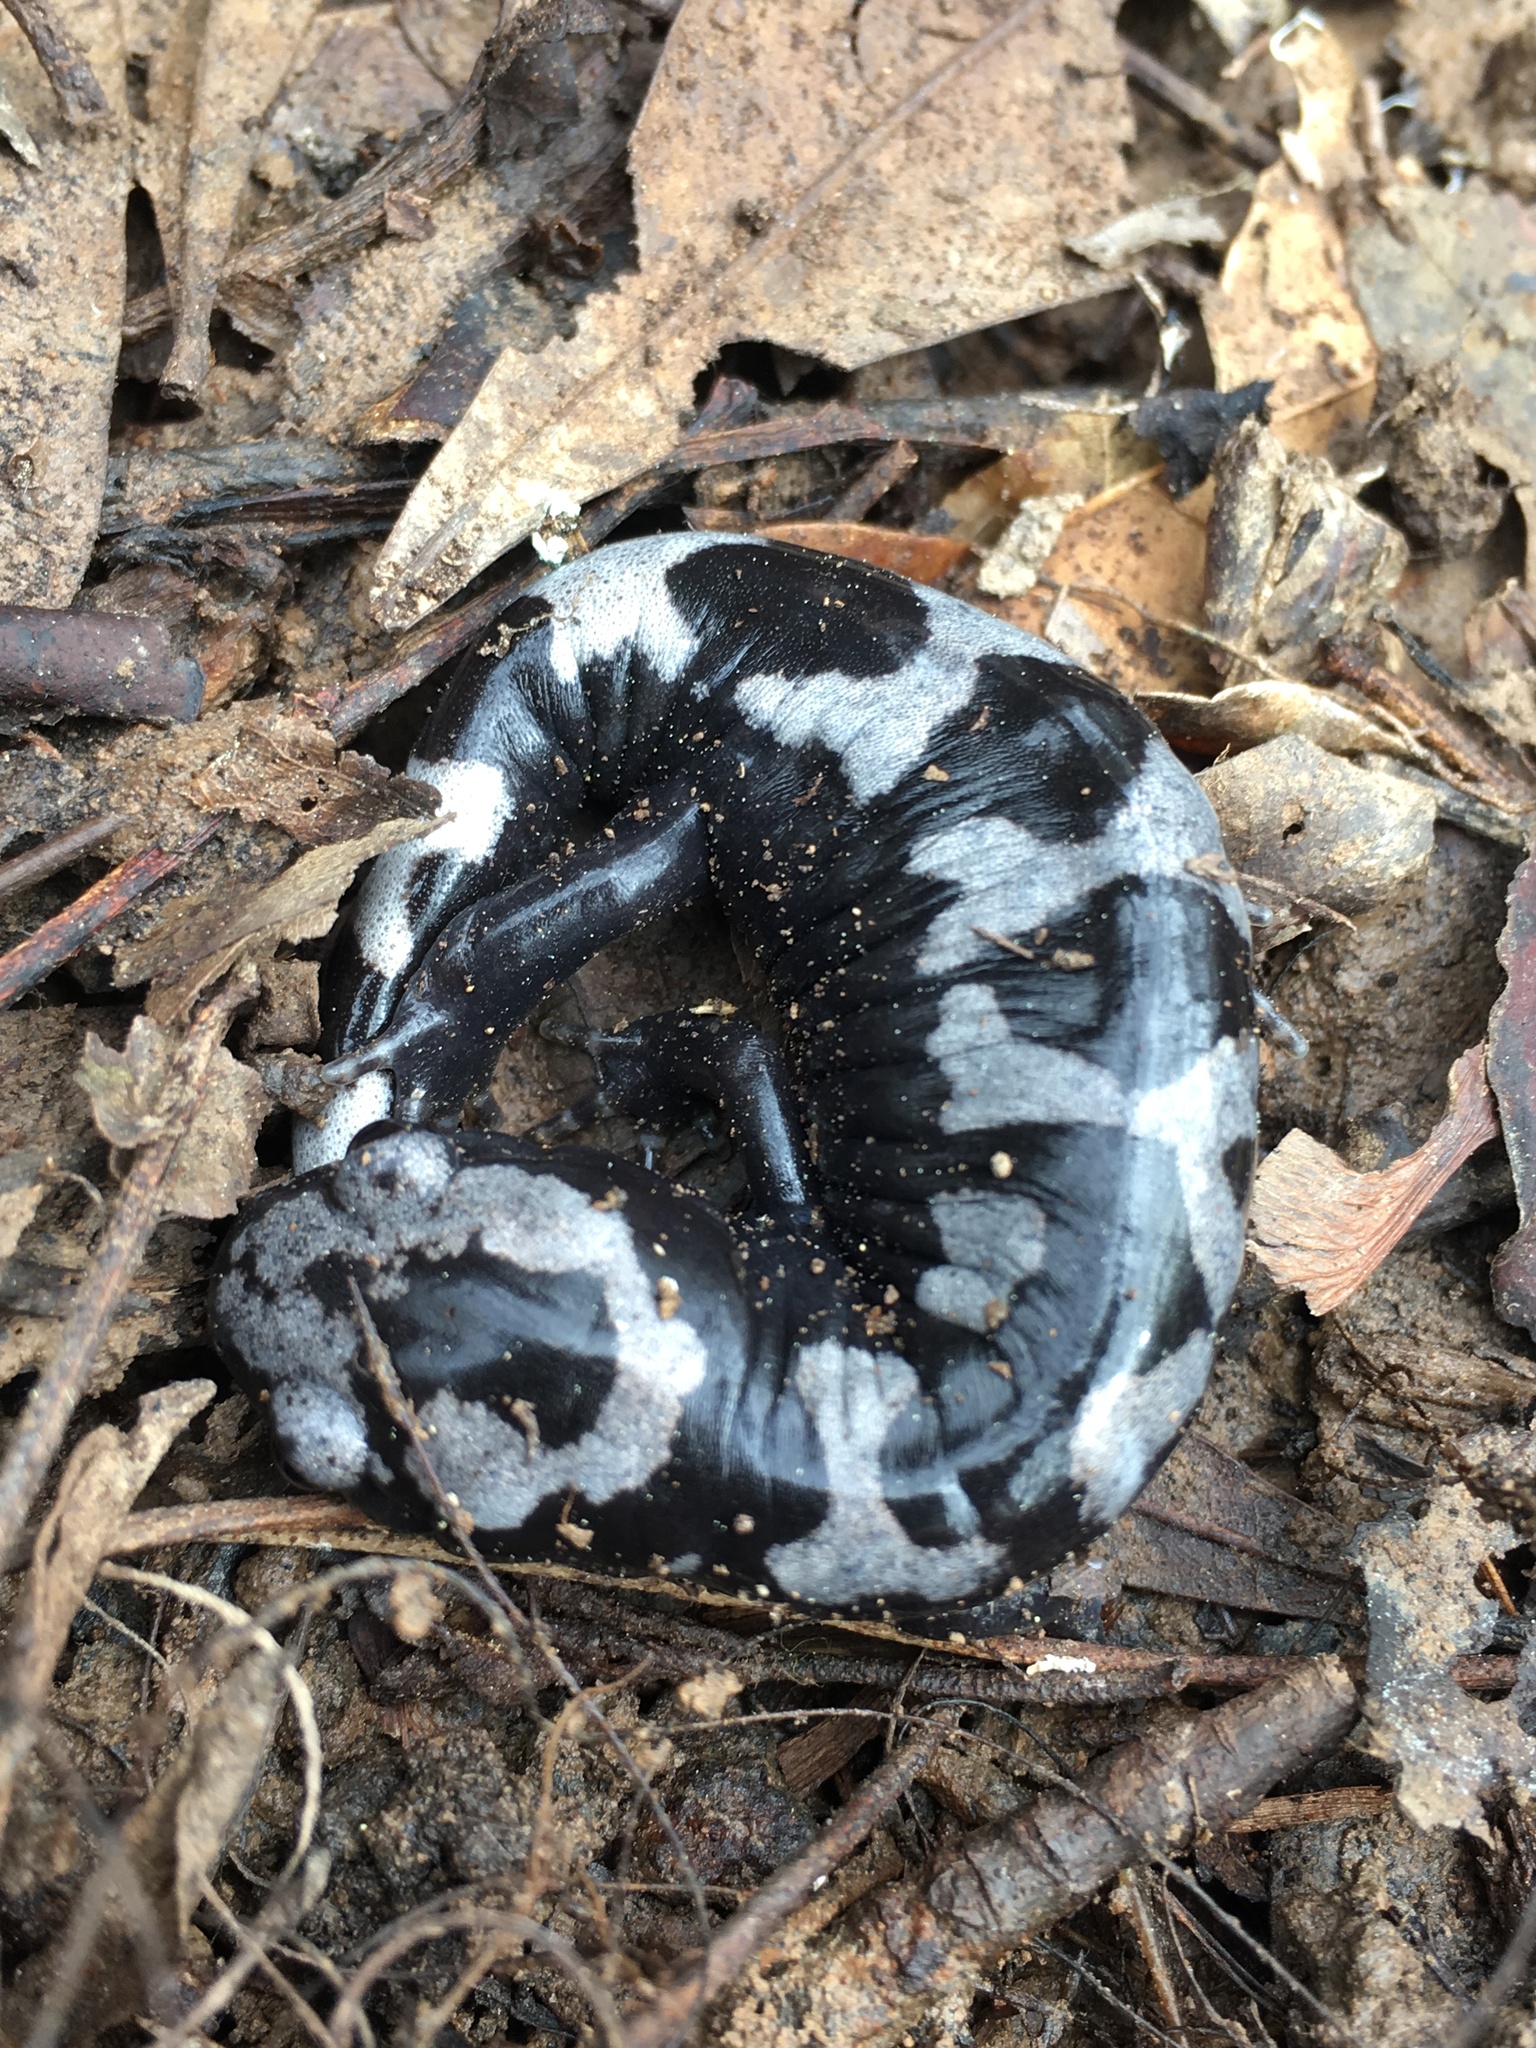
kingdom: Animalia
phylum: Chordata
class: Amphibia
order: Caudata
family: Ambystomatidae
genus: Ambystoma
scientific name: Ambystoma opacum
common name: Marbled salamander
